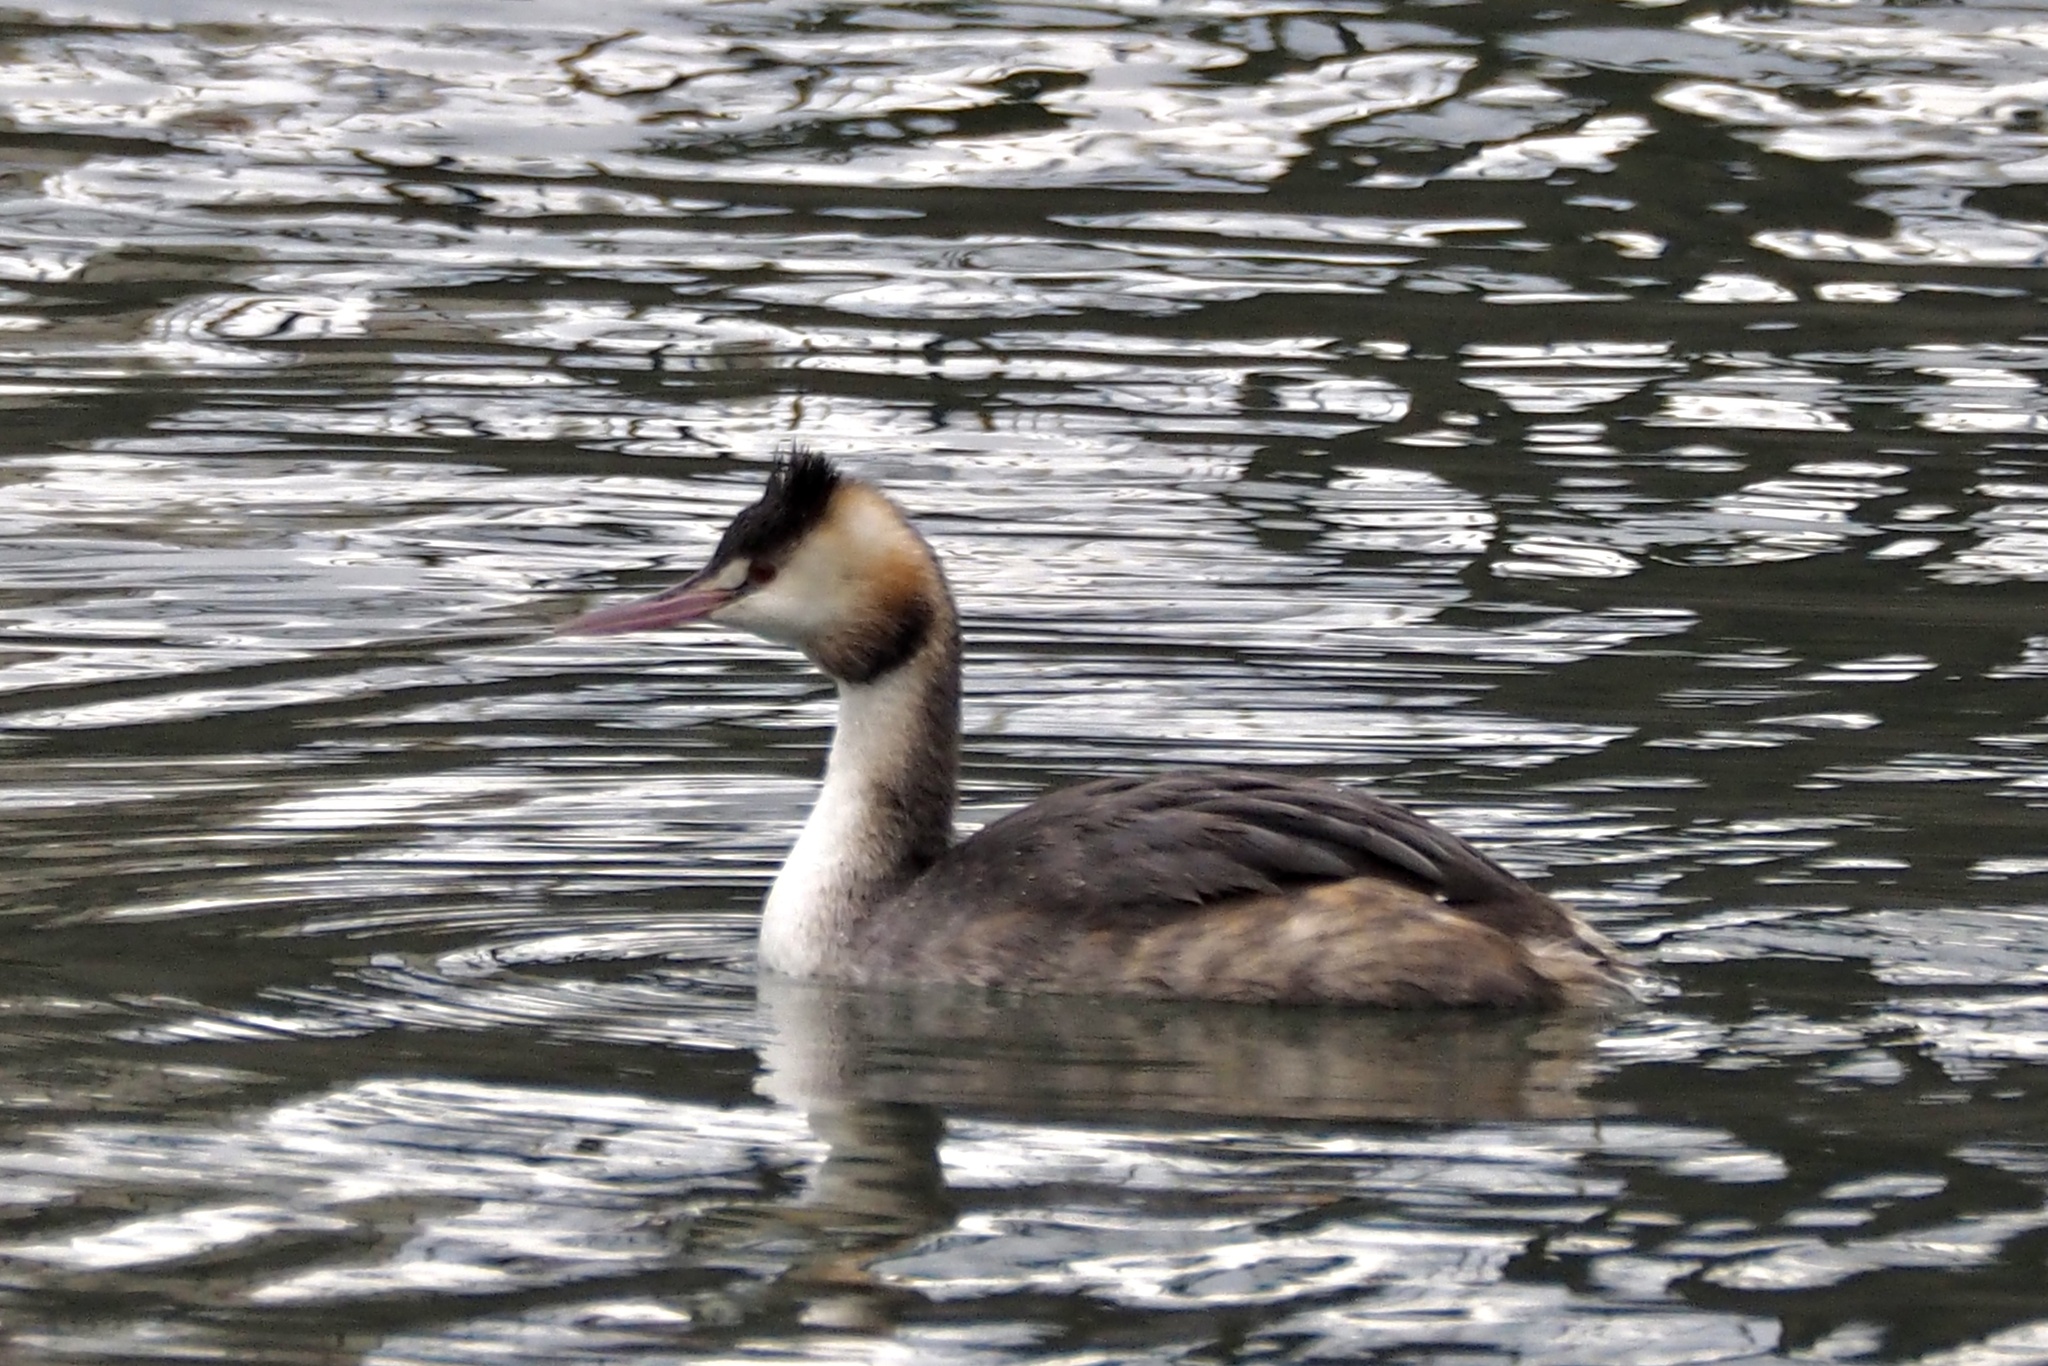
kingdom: Animalia
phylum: Chordata
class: Aves
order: Podicipediformes
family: Podicipedidae
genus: Podiceps
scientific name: Podiceps cristatus
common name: Great crested grebe
